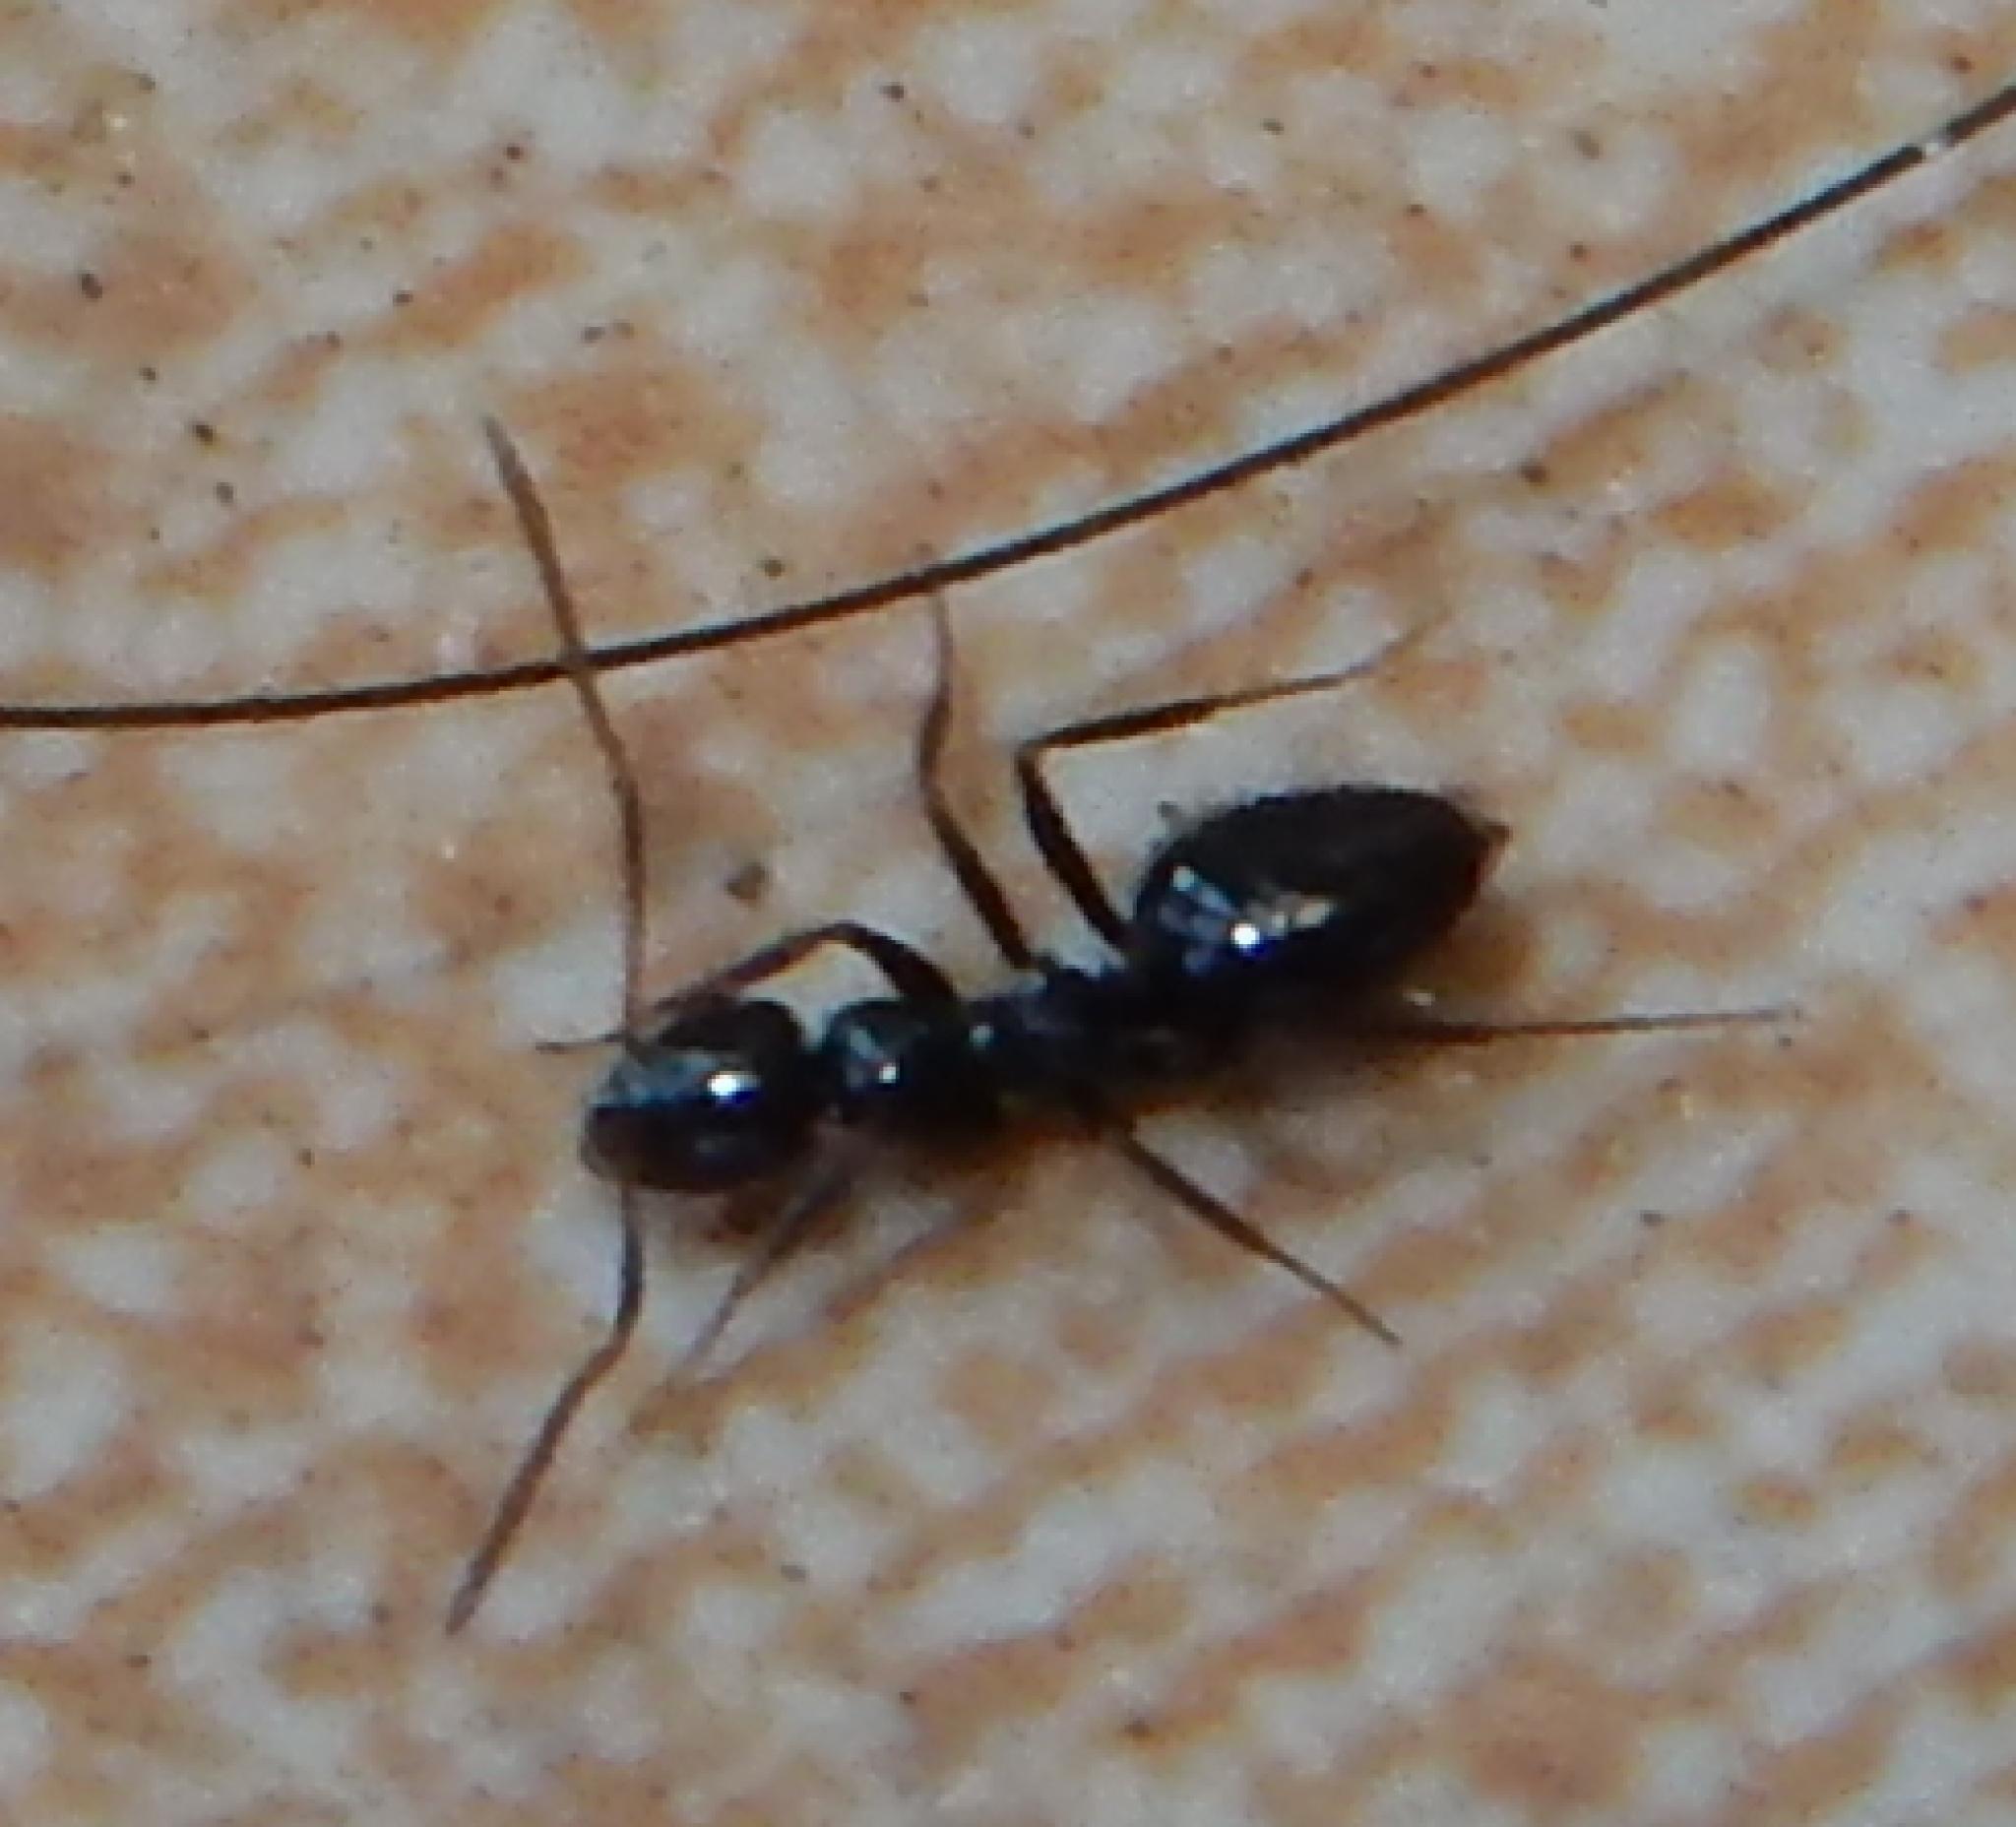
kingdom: Animalia
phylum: Arthropoda
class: Insecta
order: Hymenoptera
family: Formicidae
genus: Lepisiota
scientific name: Lepisiota capensis
